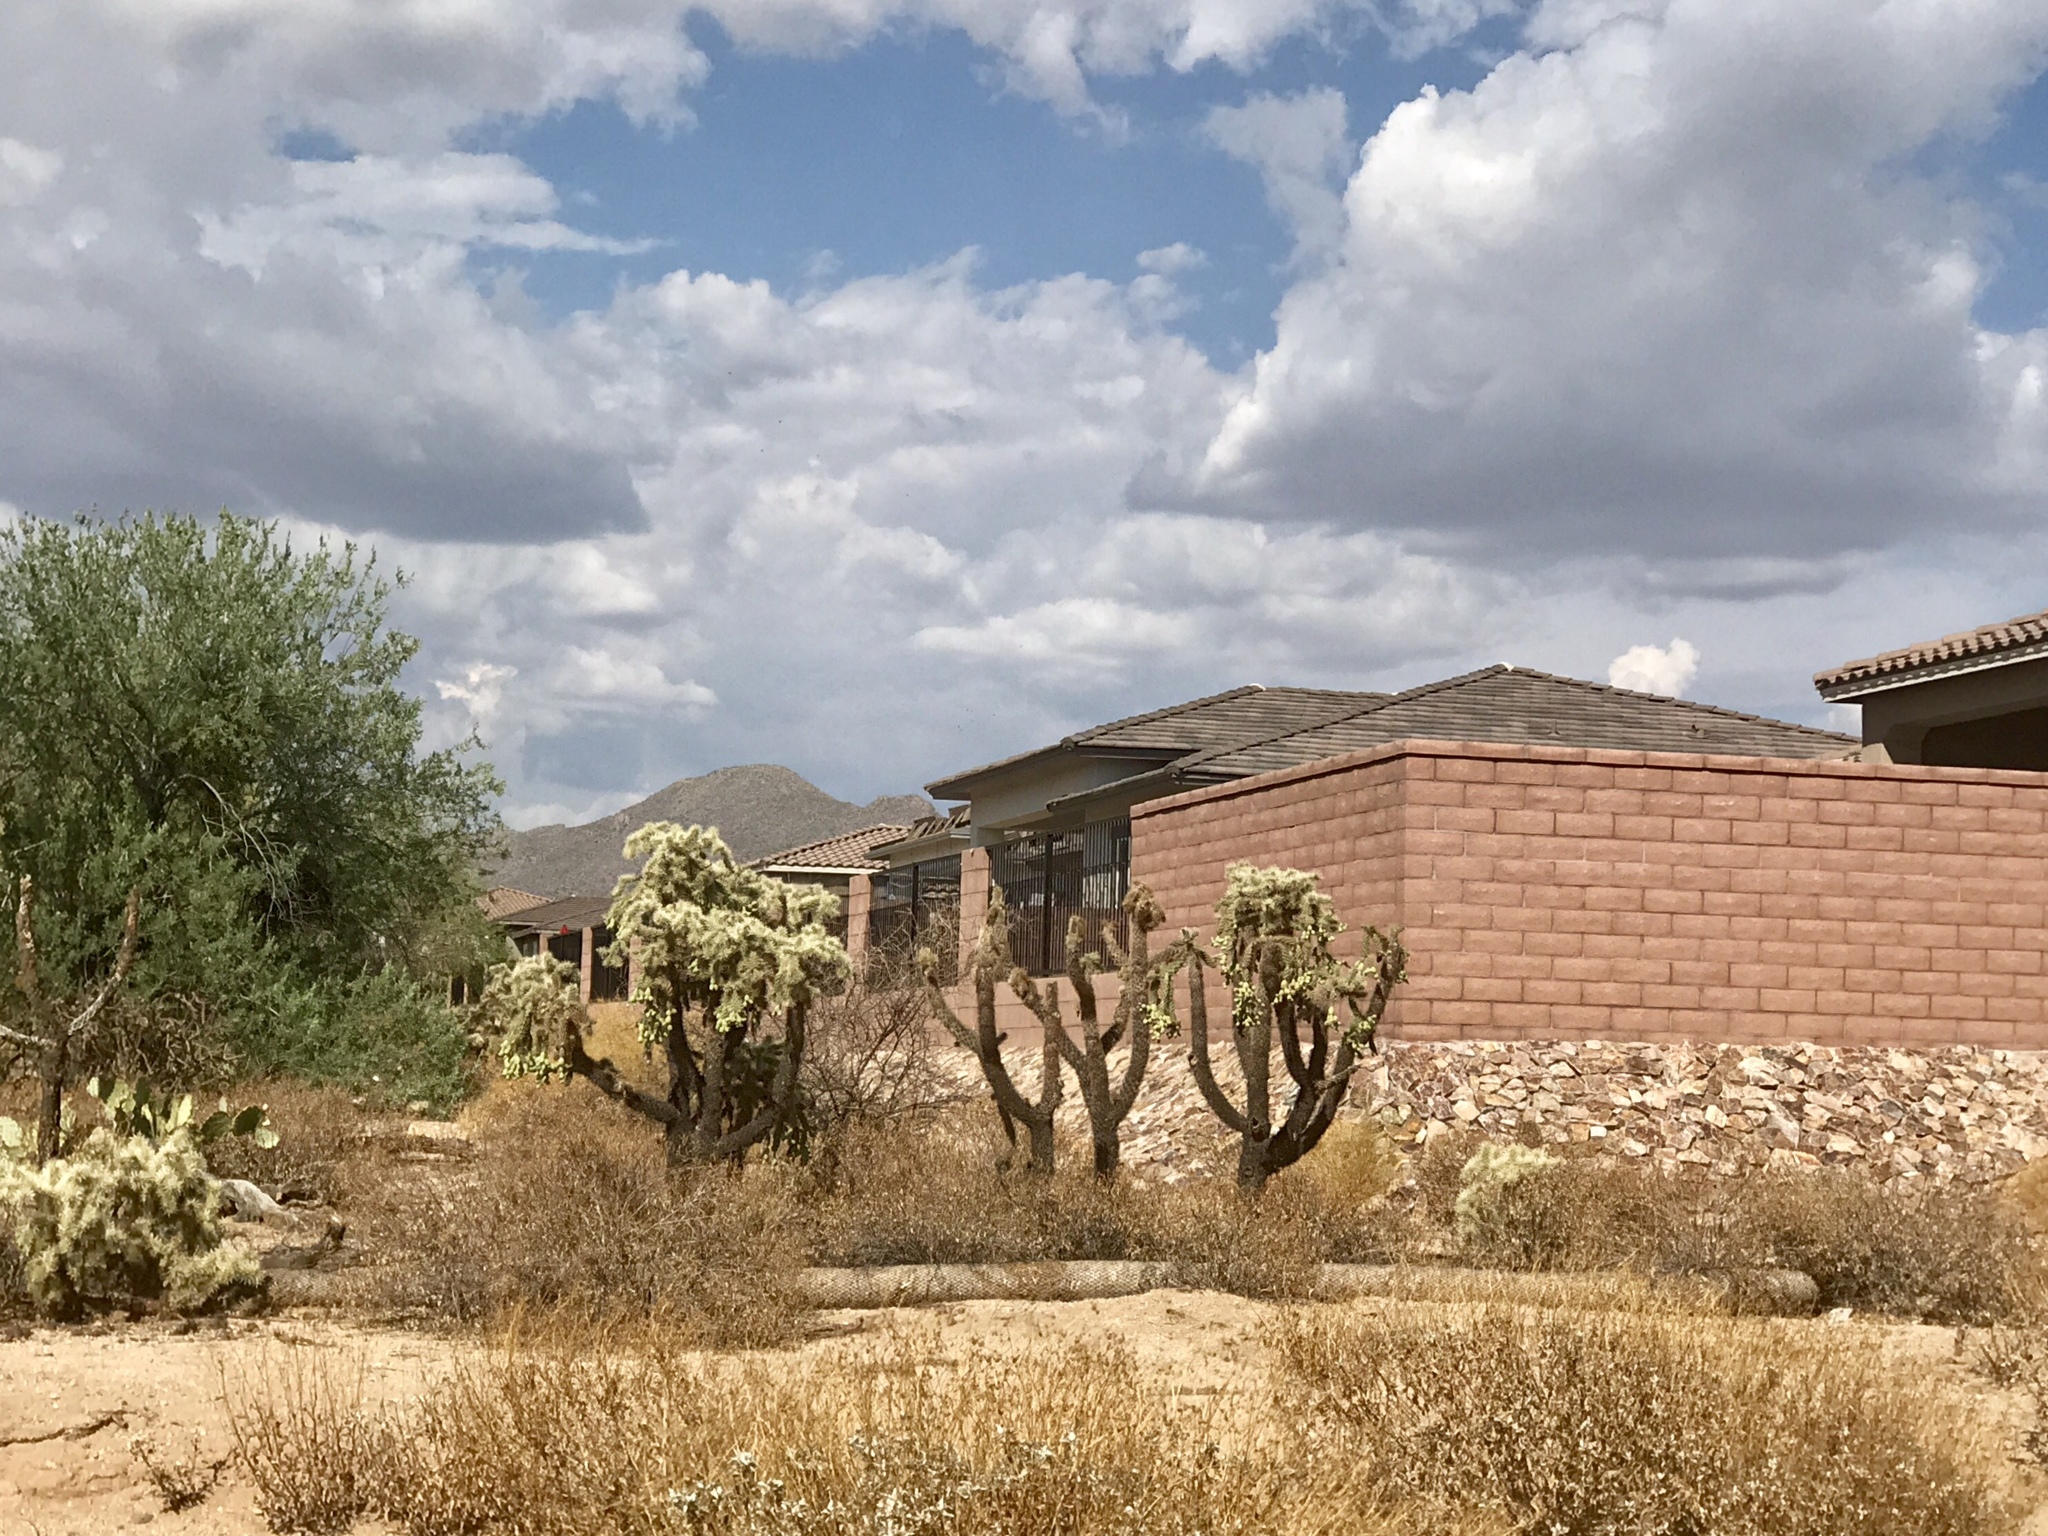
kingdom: Plantae
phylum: Tracheophyta
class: Magnoliopsida
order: Caryophyllales
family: Cactaceae
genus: Cylindropuntia
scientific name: Cylindropuntia fulgida
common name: Jumping cholla
